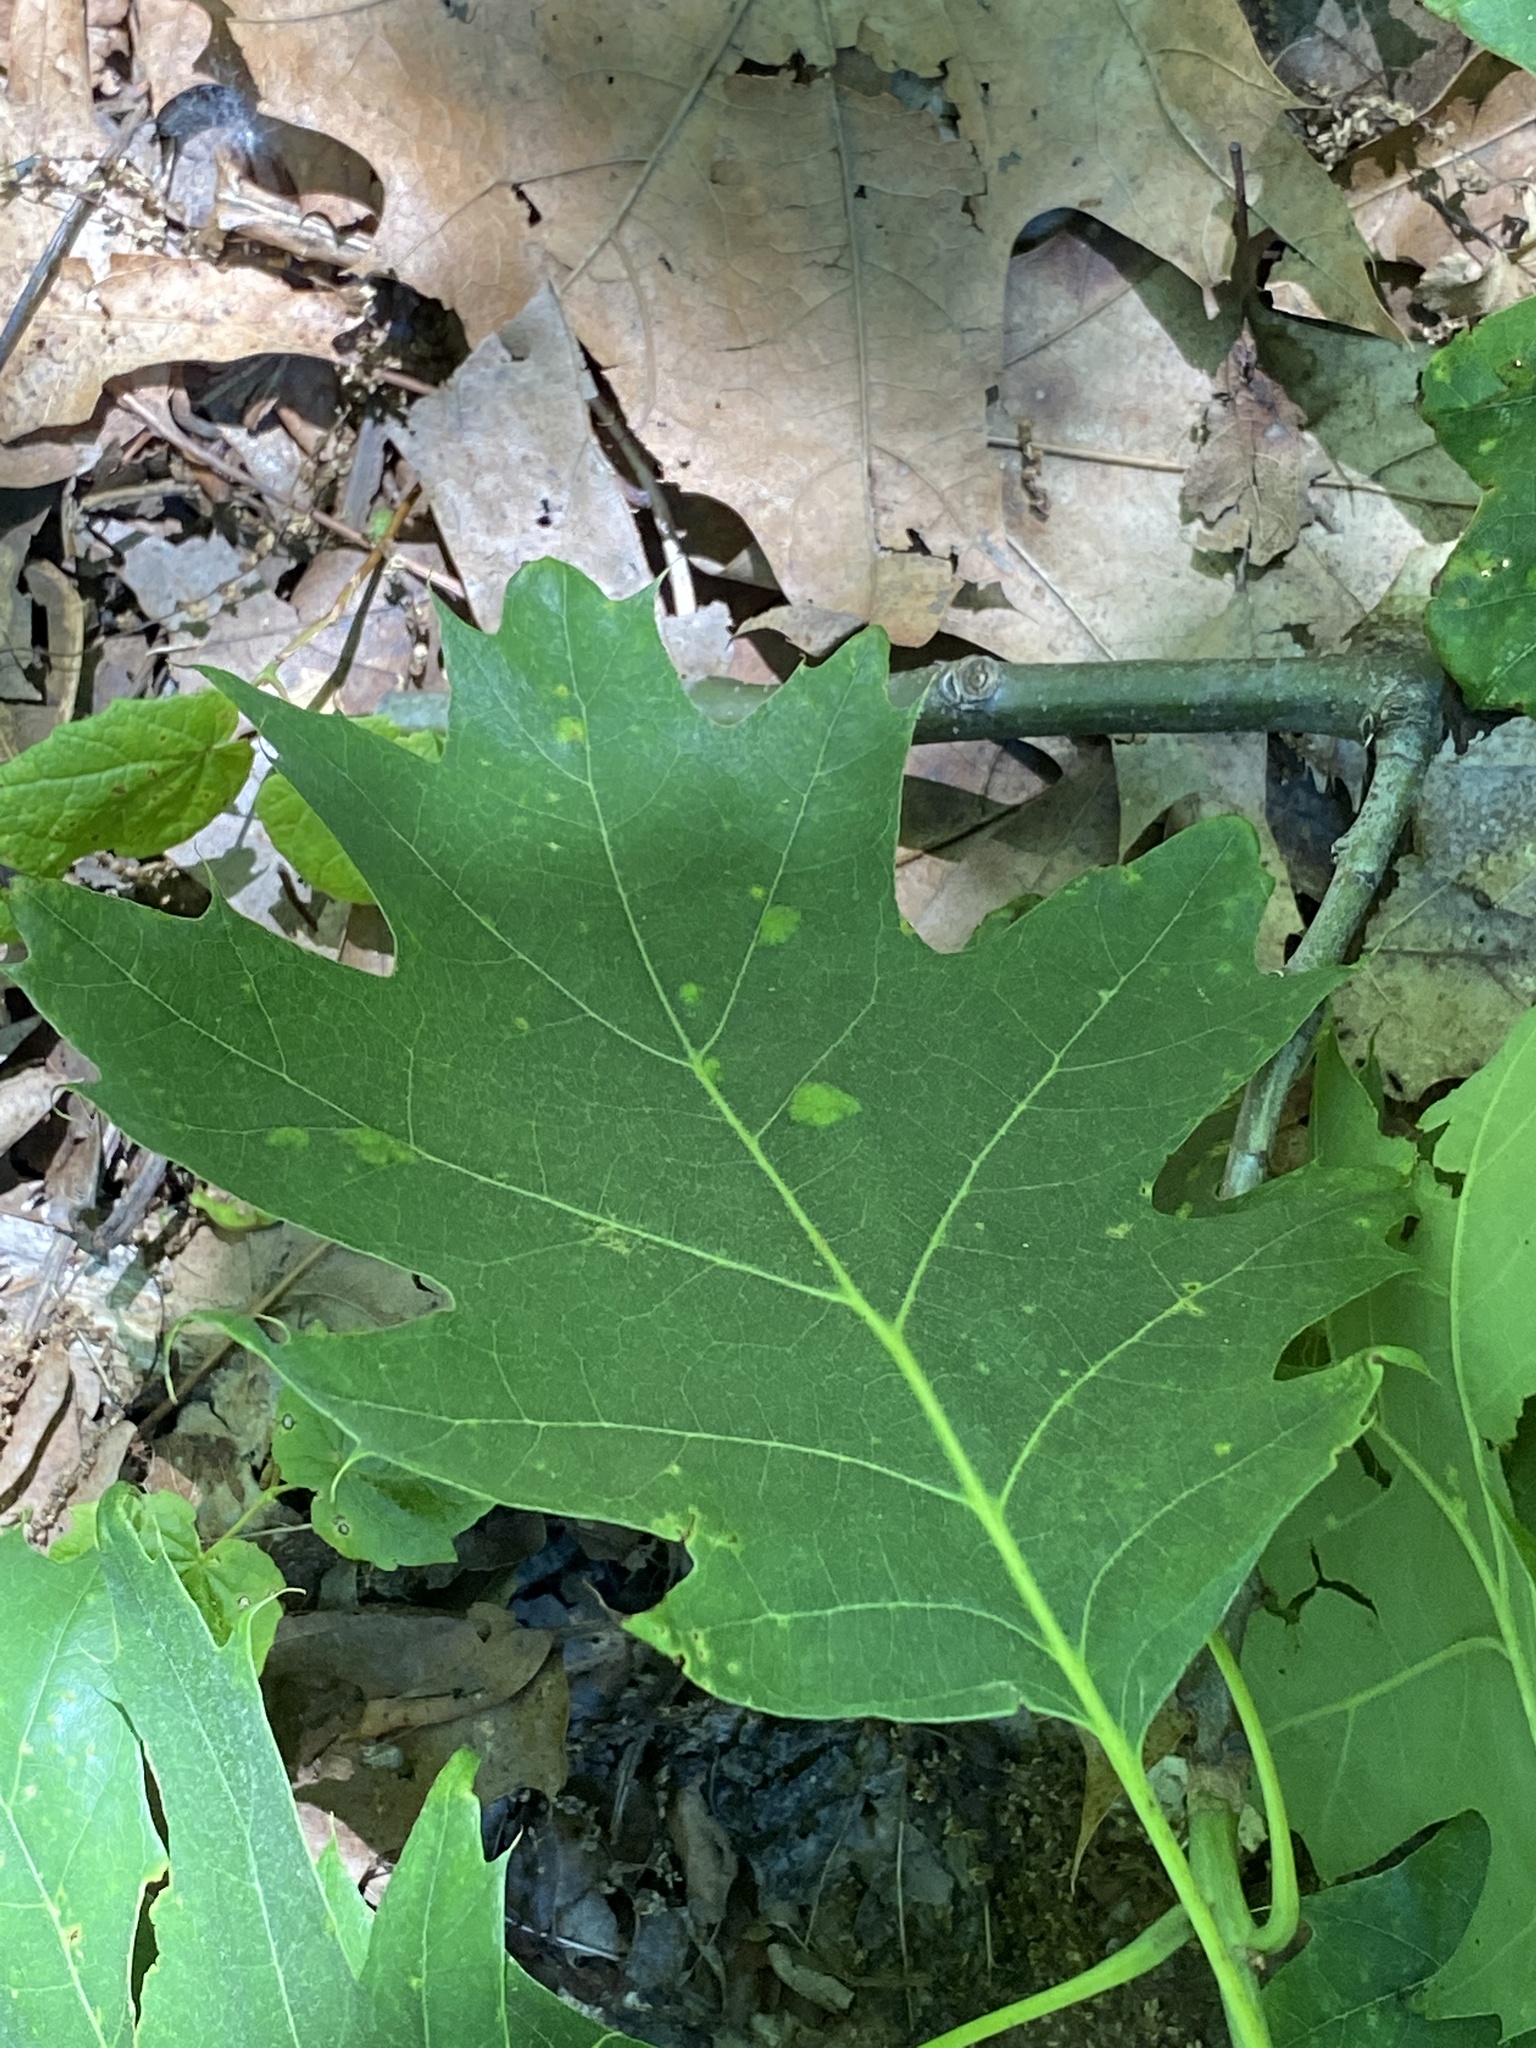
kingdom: Plantae
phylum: Tracheophyta
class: Magnoliopsida
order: Fagales
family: Fagaceae
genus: Quercus
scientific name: Quercus rubra
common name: Red oak
